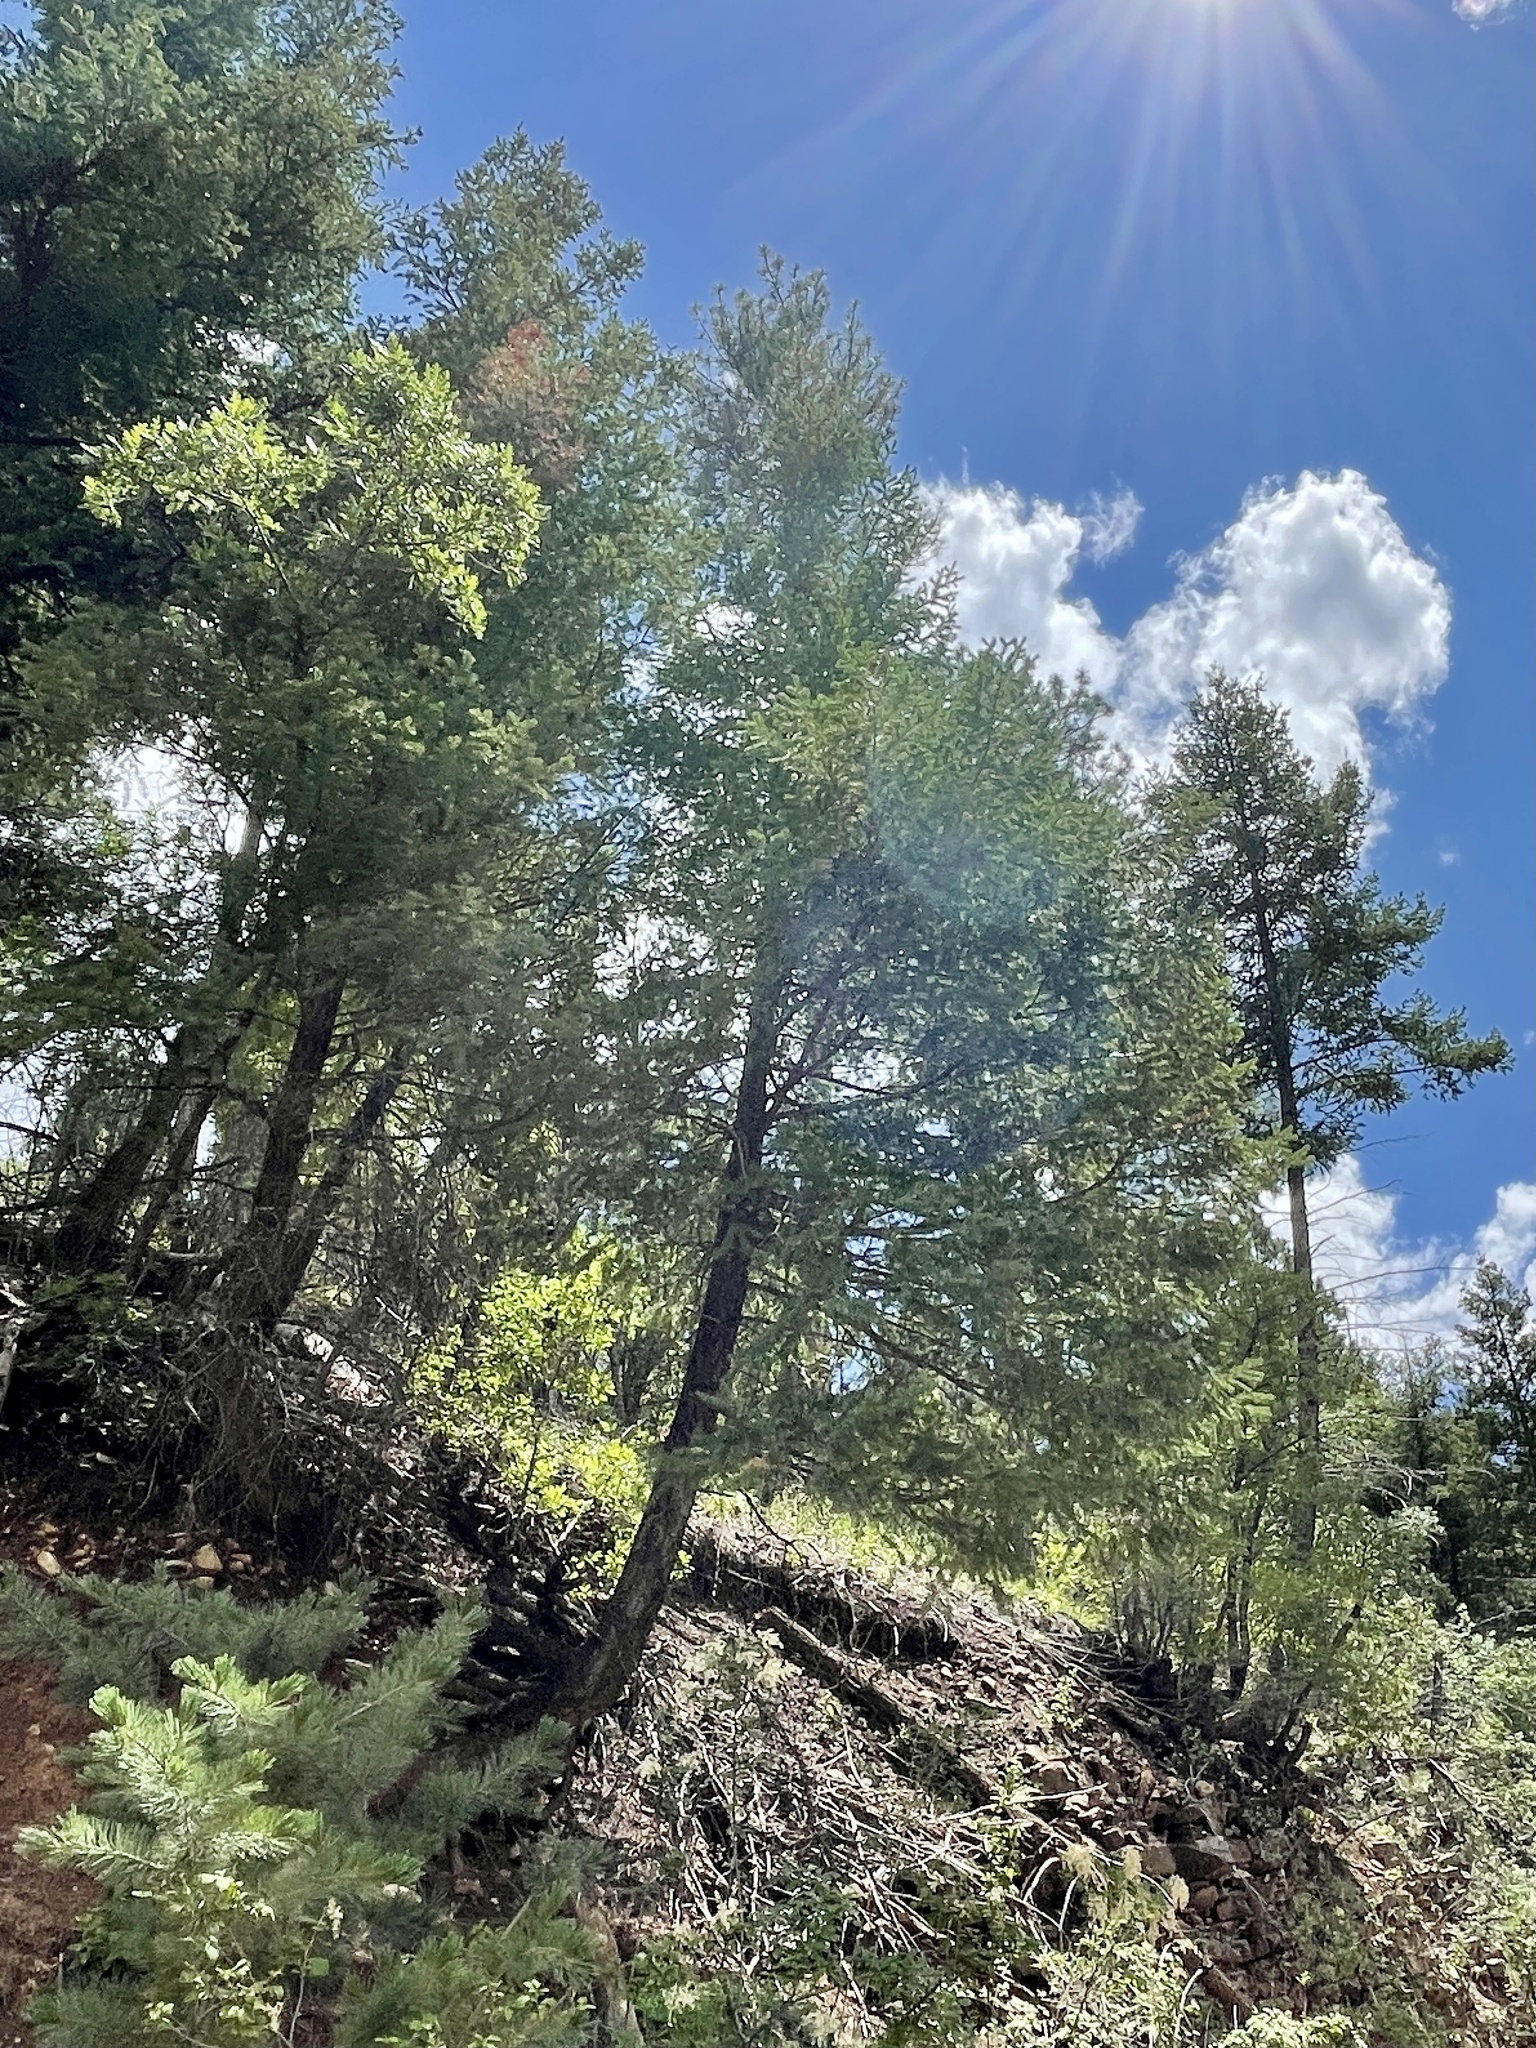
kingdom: Plantae
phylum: Tracheophyta
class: Pinopsida
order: Pinales
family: Pinaceae
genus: Pseudotsuga
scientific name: Pseudotsuga menziesii
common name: Douglas fir
